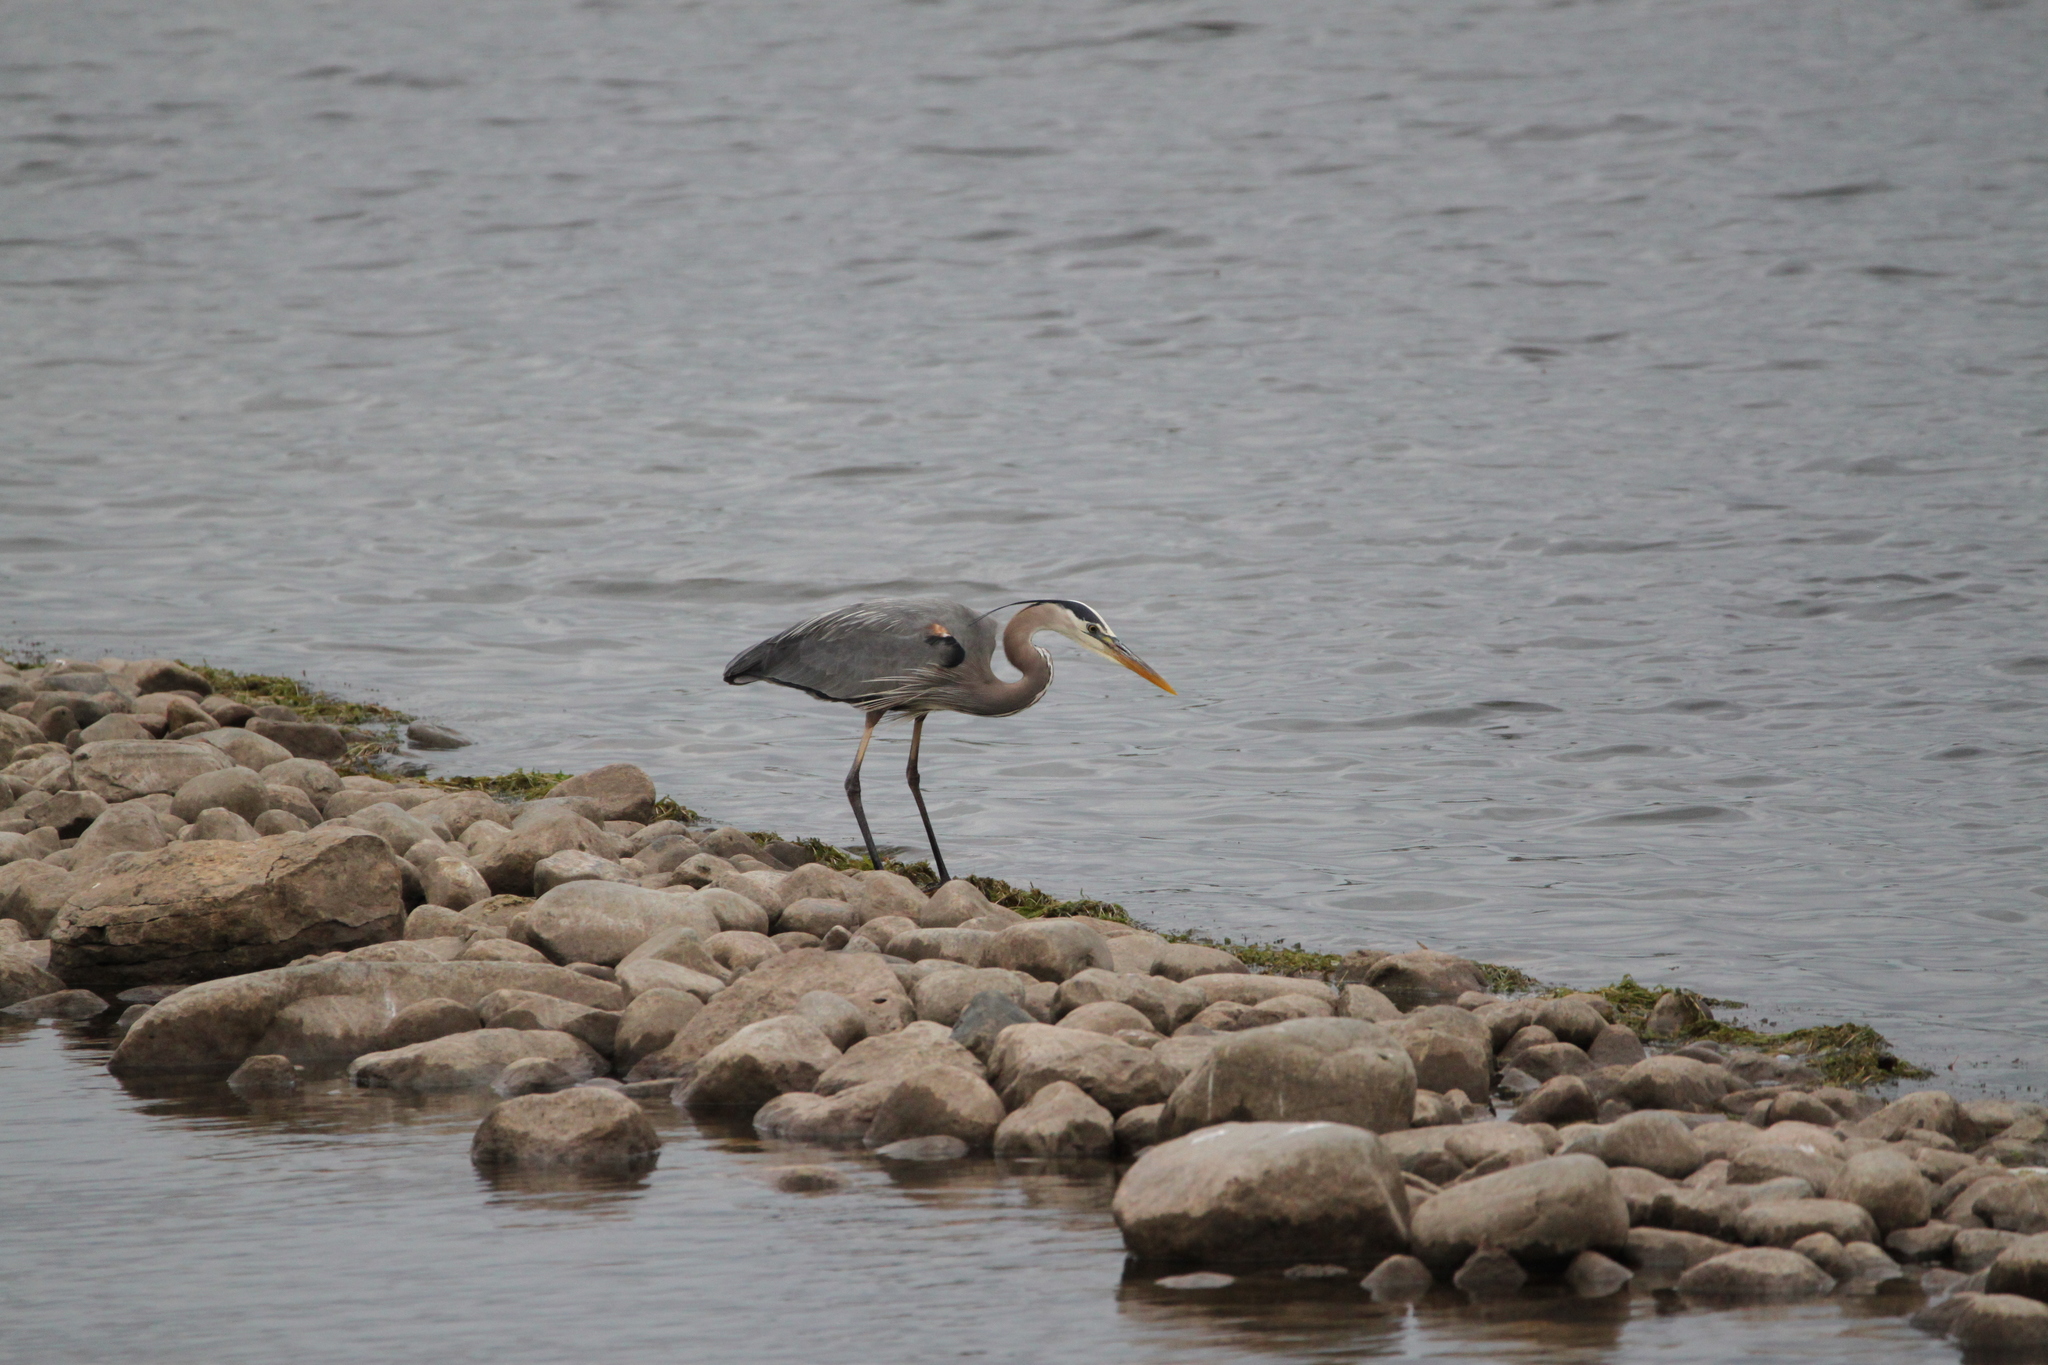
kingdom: Animalia
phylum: Chordata
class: Aves
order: Pelecaniformes
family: Ardeidae
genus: Ardea
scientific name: Ardea herodias
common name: Great blue heron
